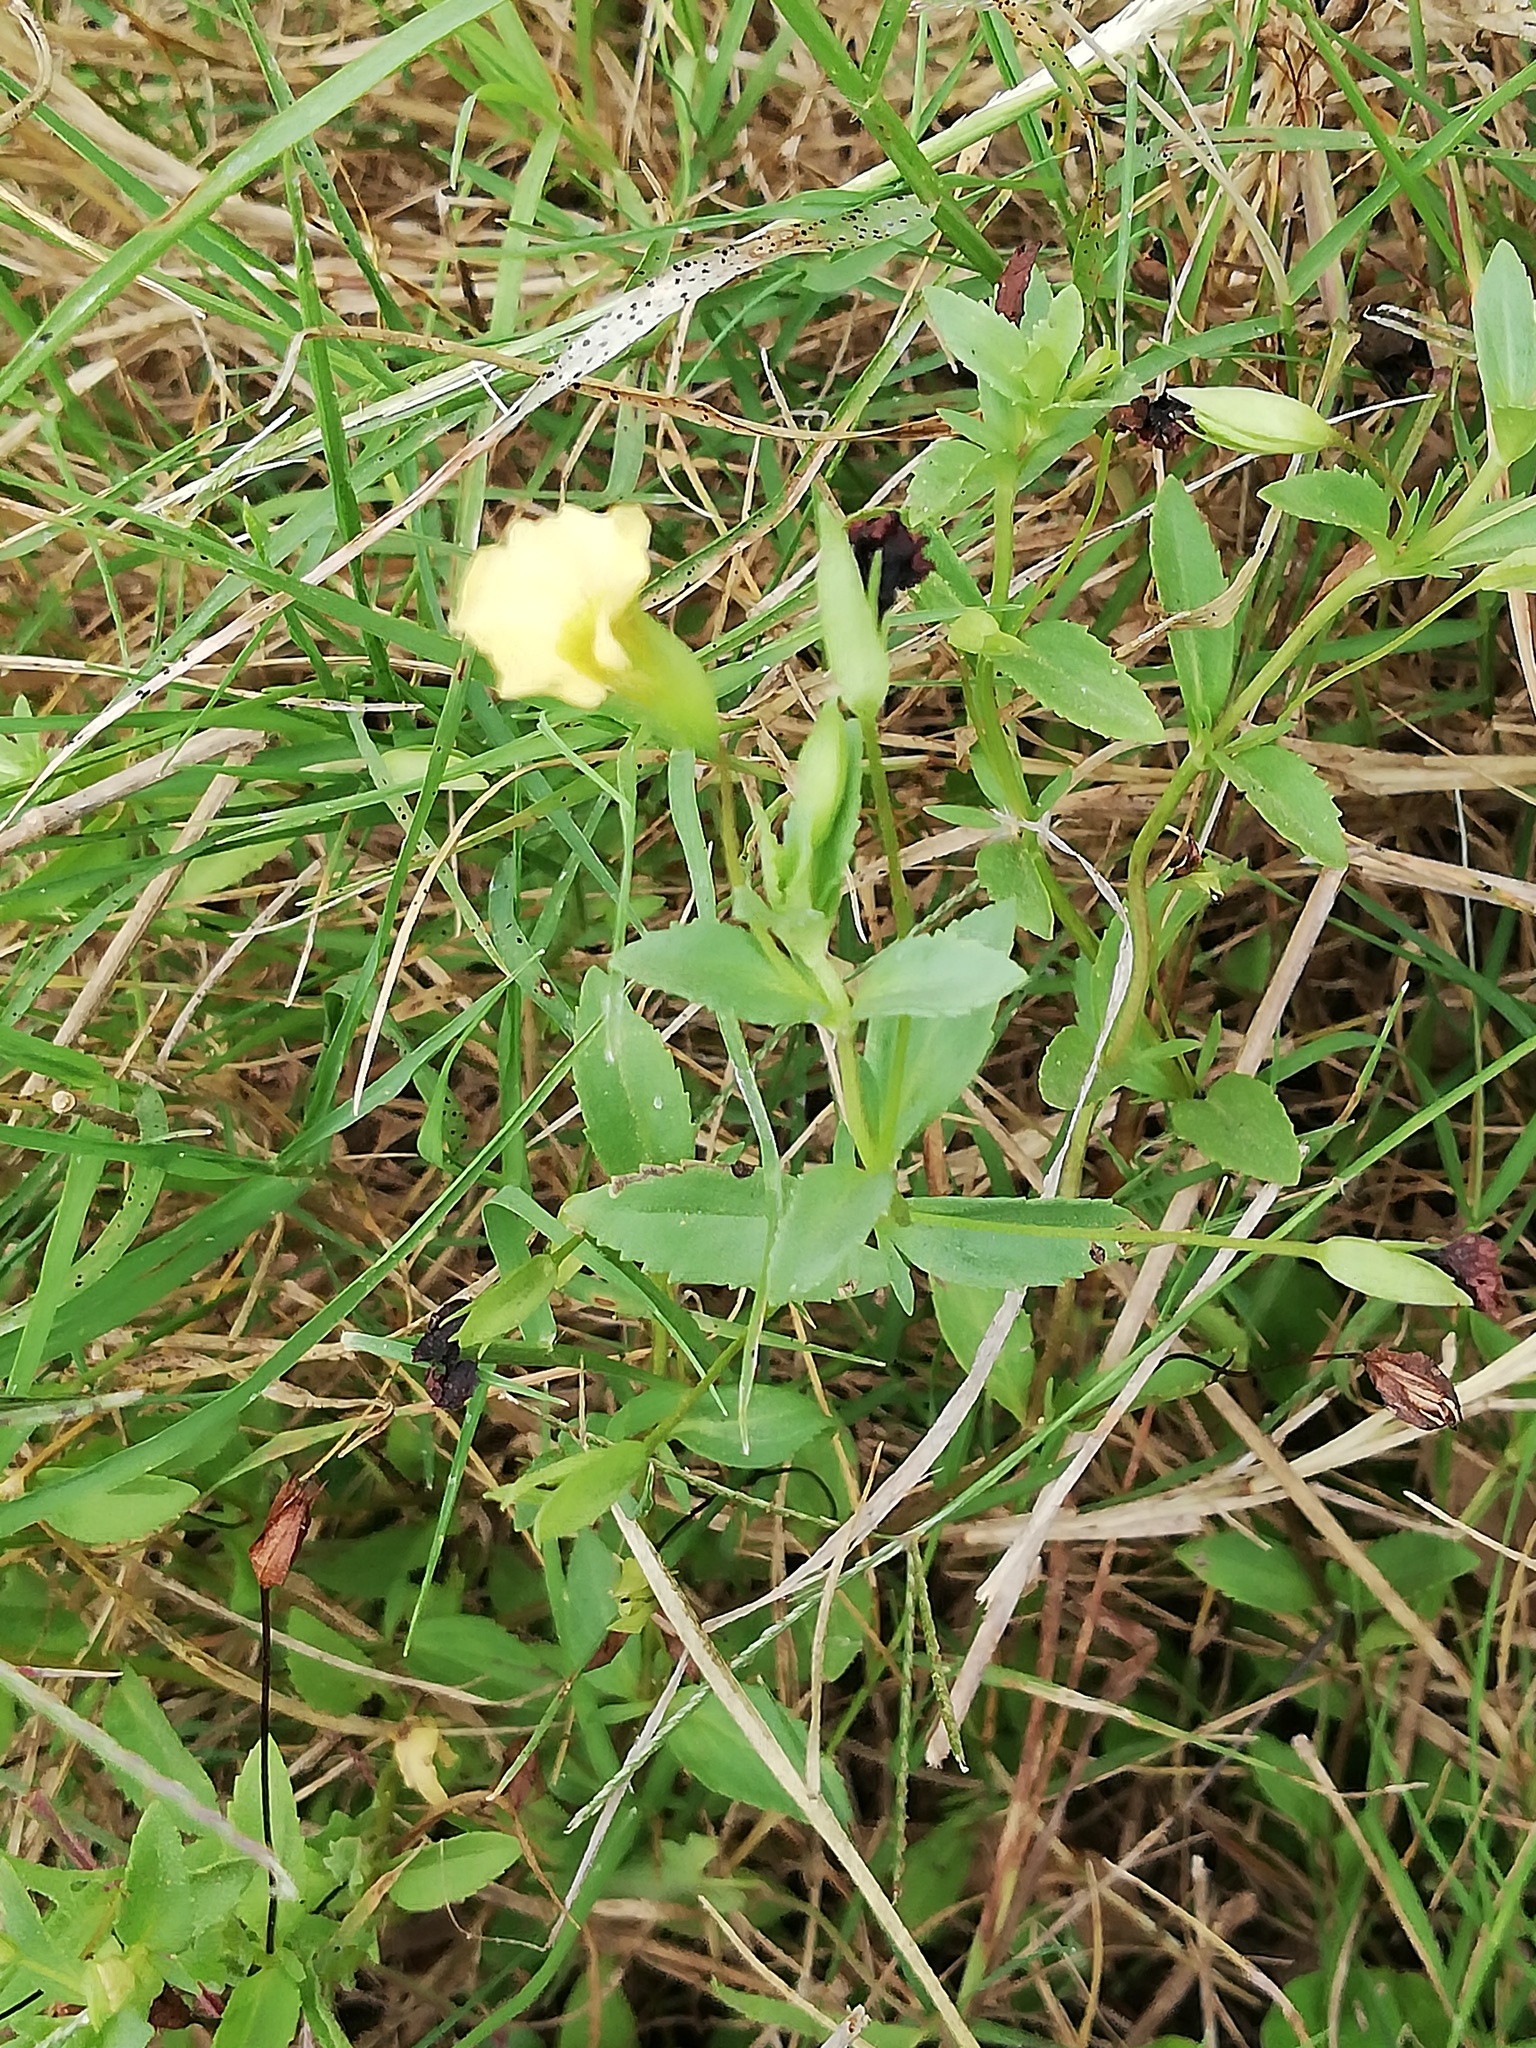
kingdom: Plantae
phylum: Tracheophyta
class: Magnoliopsida
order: Lamiales
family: Plantaginaceae
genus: Mecardonia
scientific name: Mecardonia procumbens
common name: Baby jump-up
